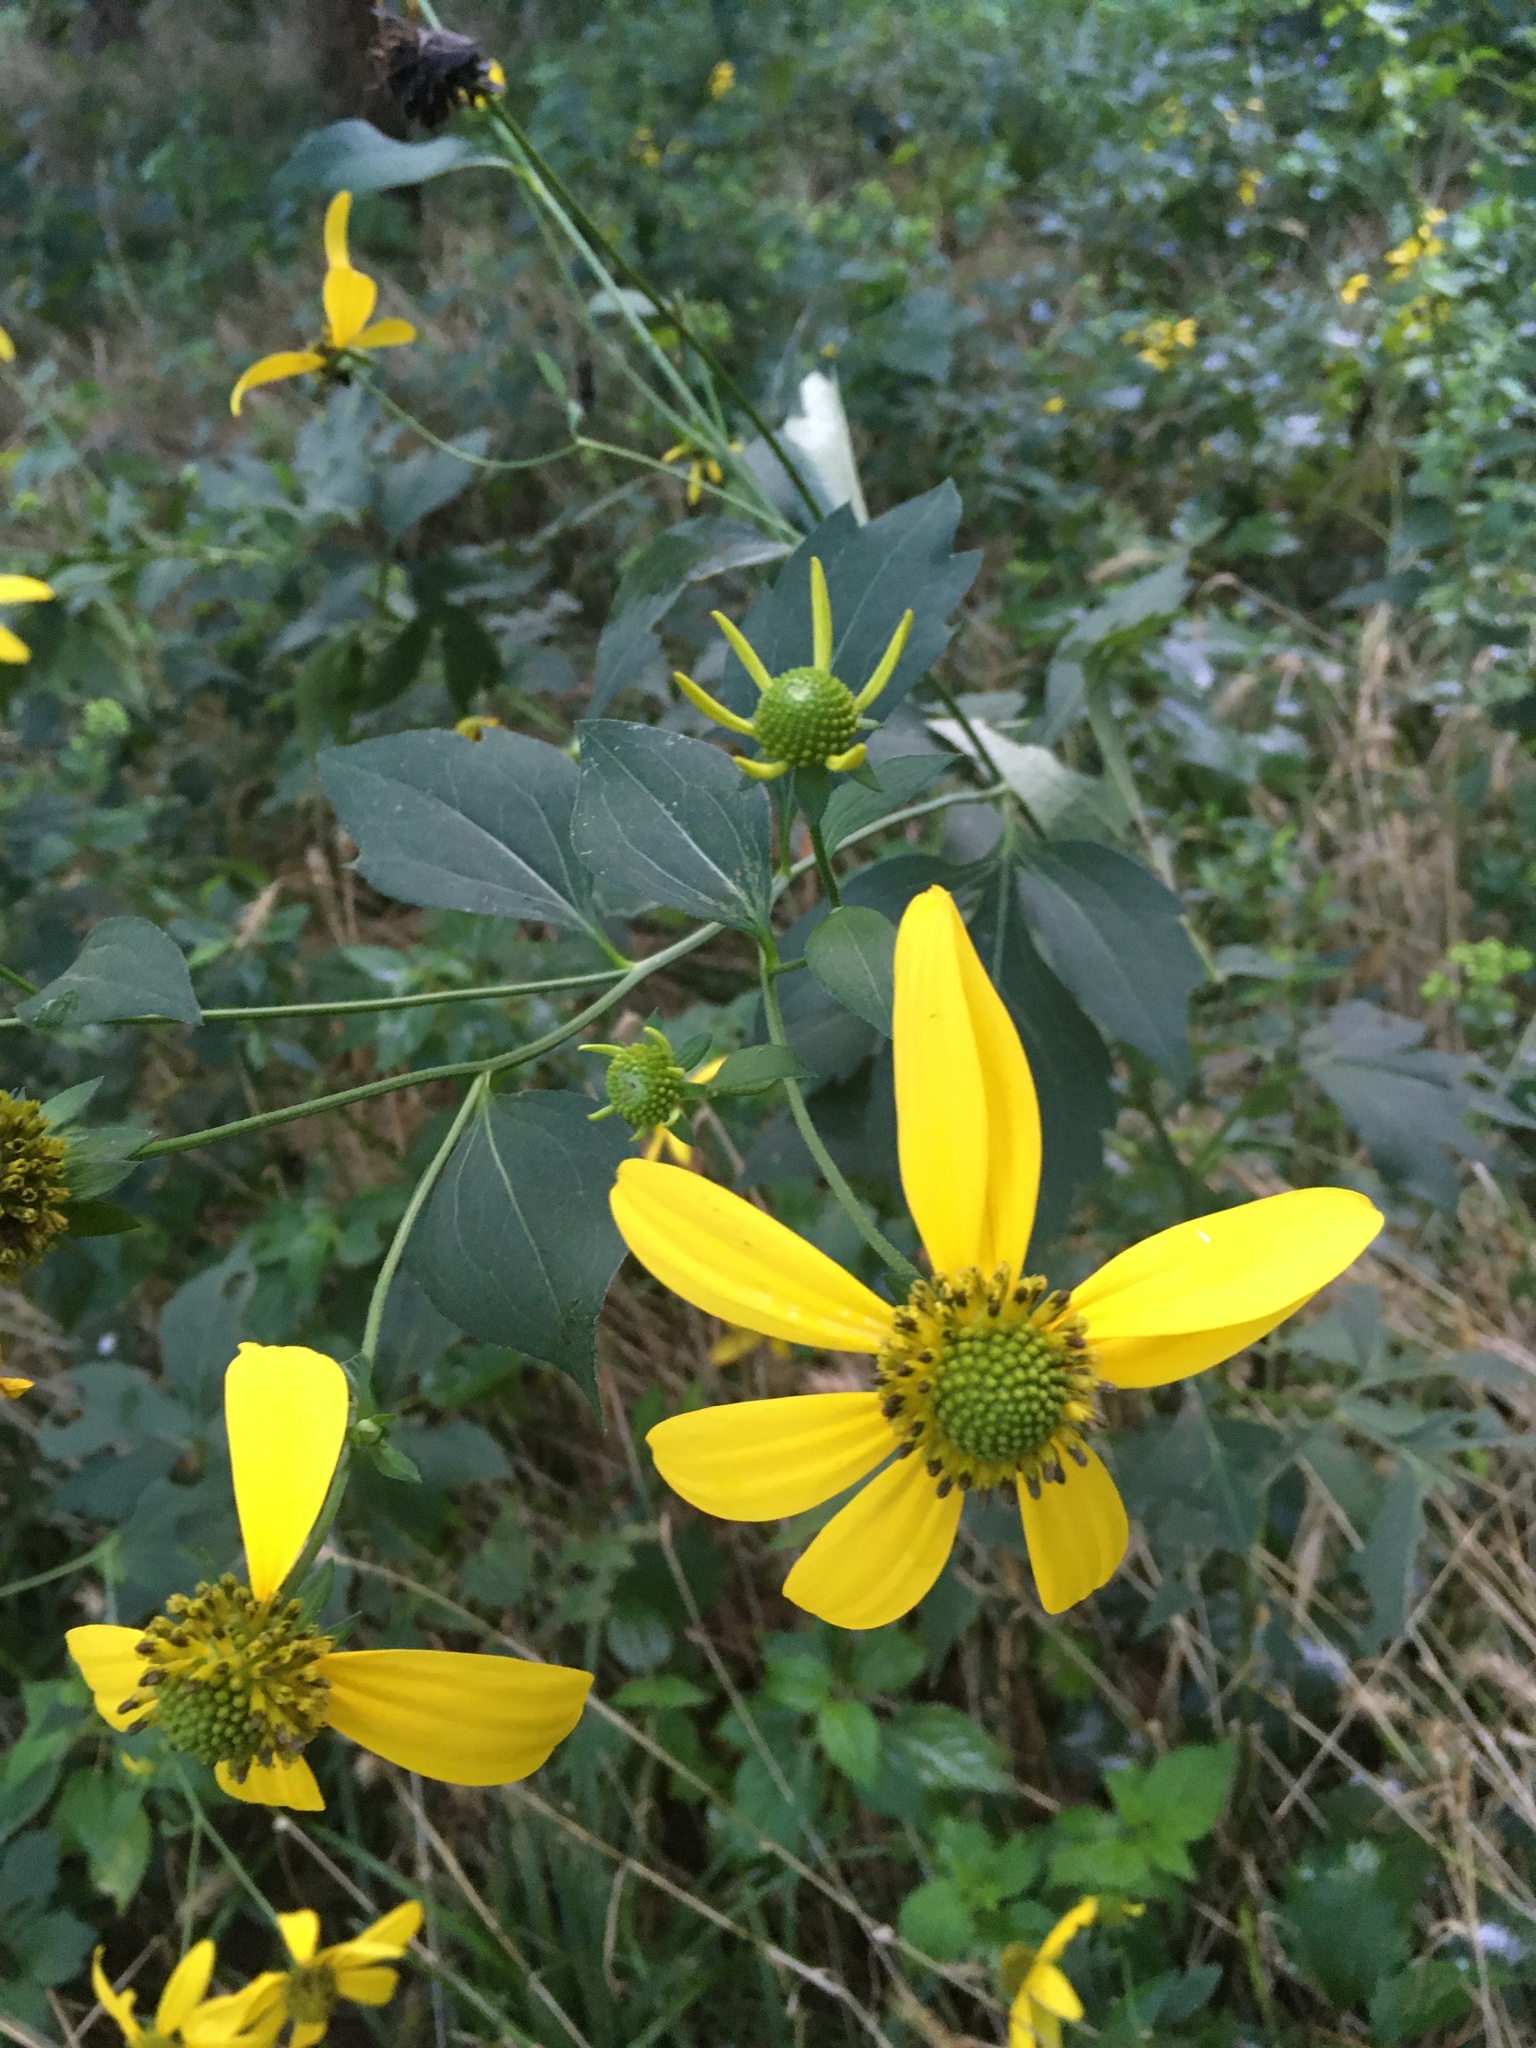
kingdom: Plantae
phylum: Tracheophyta
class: Magnoliopsida
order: Asterales
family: Asteraceae
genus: Rudbeckia
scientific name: Rudbeckia laciniata
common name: Coneflower
